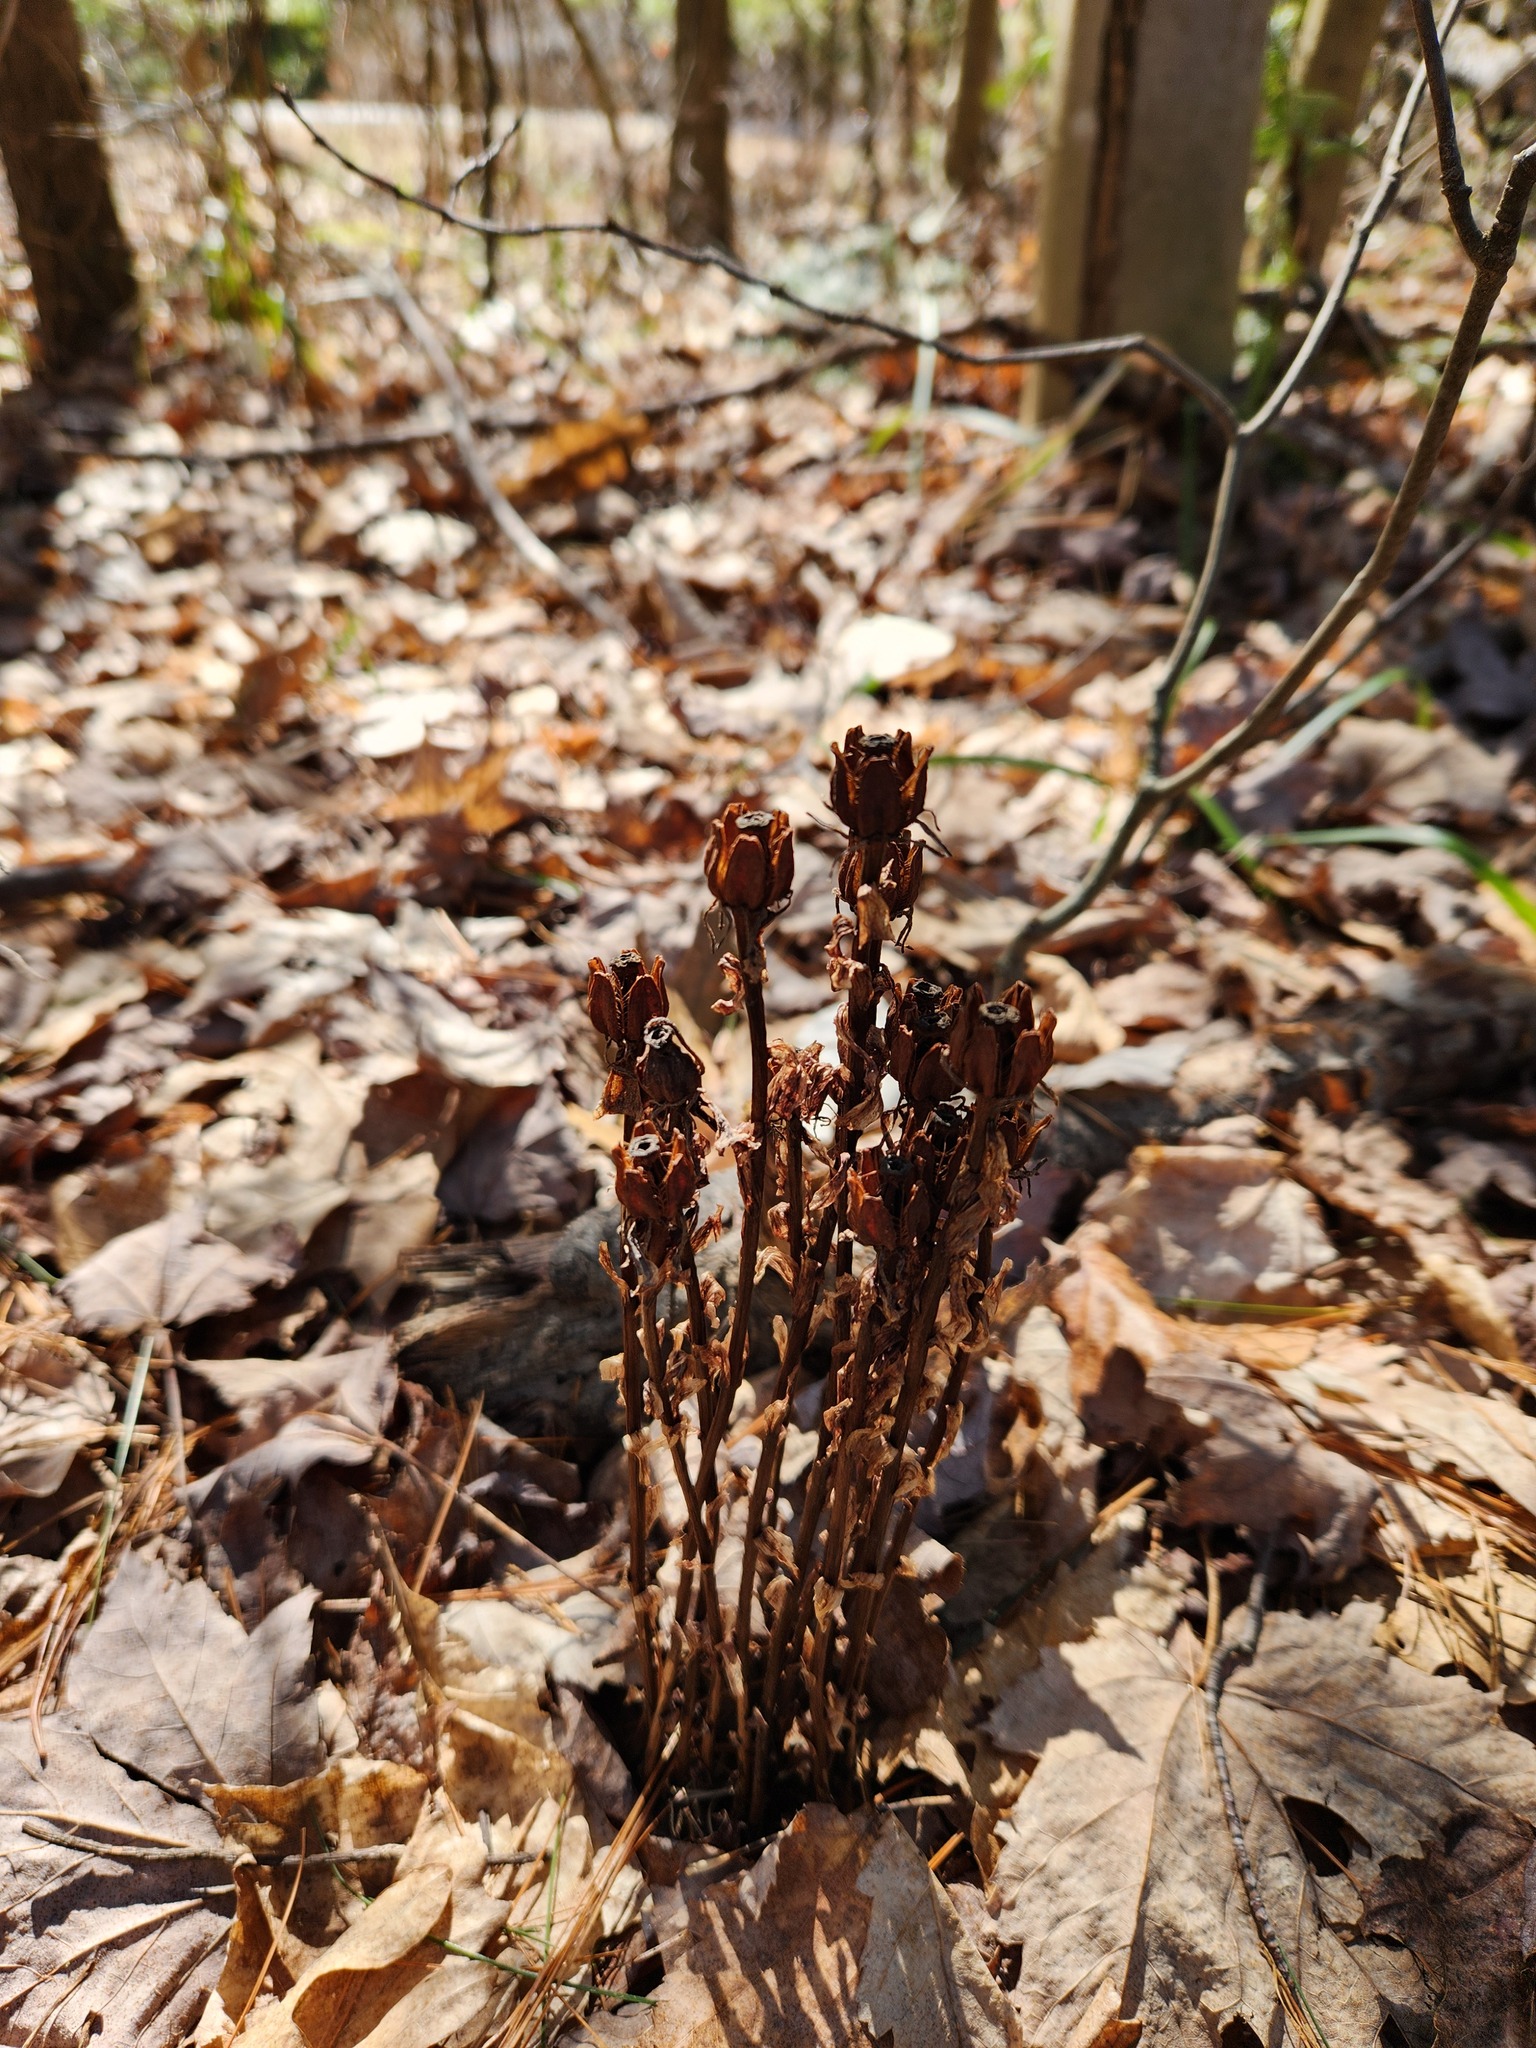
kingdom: Plantae
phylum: Tracheophyta
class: Magnoliopsida
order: Ericales
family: Ericaceae
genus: Monotropa
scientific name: Monotropa uniflora
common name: Convulsion root
